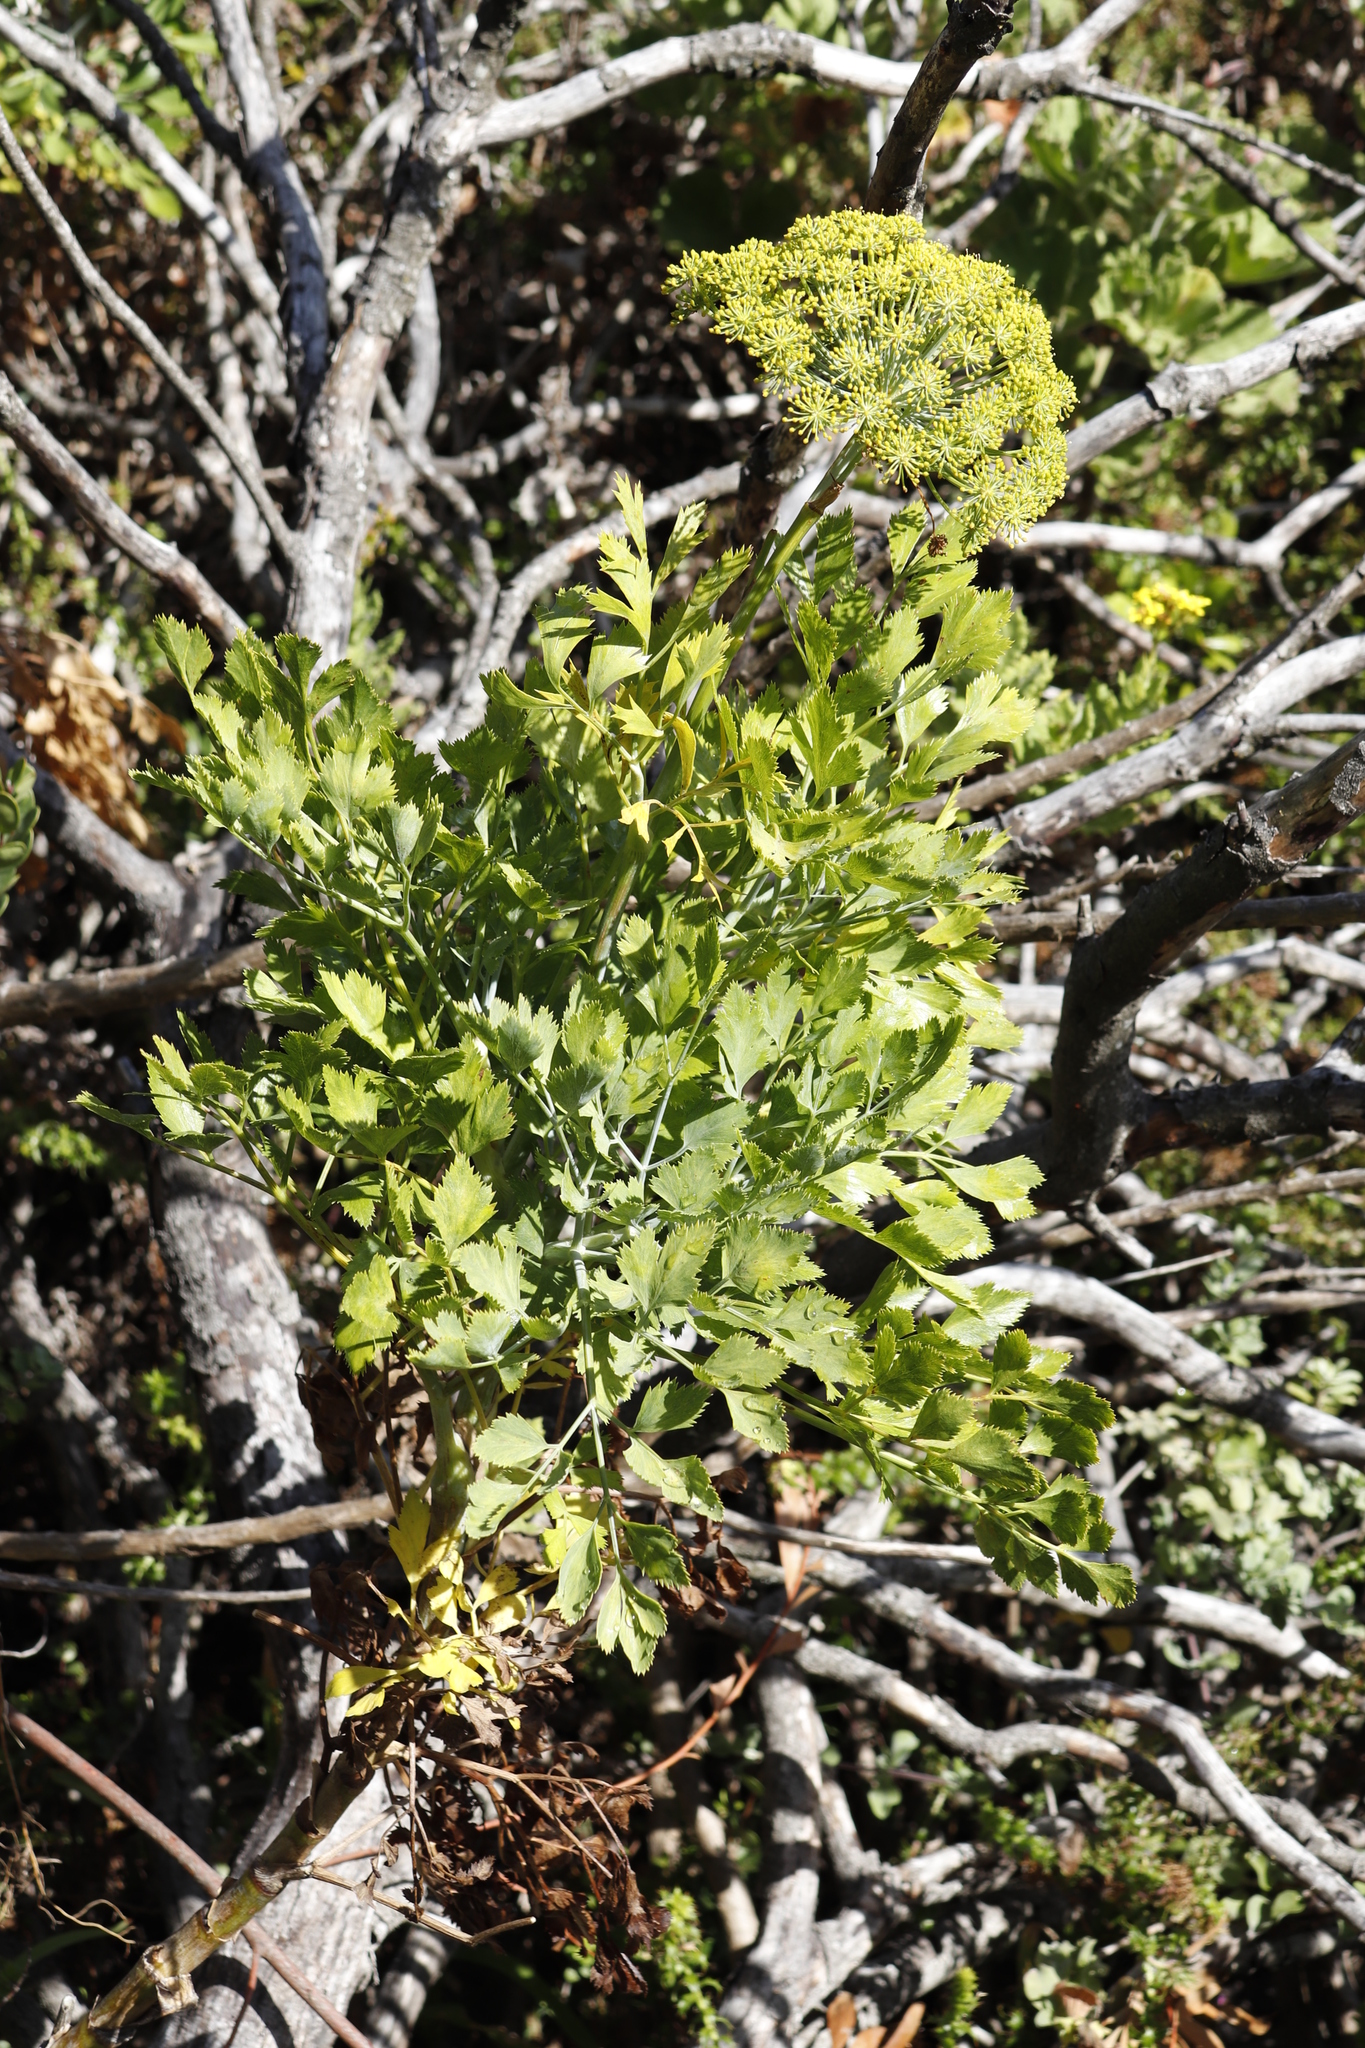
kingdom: Plantae
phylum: Tracheophyta
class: Magnoliopsida
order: Apiales
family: Apiaceae
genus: Notobubon
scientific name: Notobubon galbanum
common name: Blisterbush
